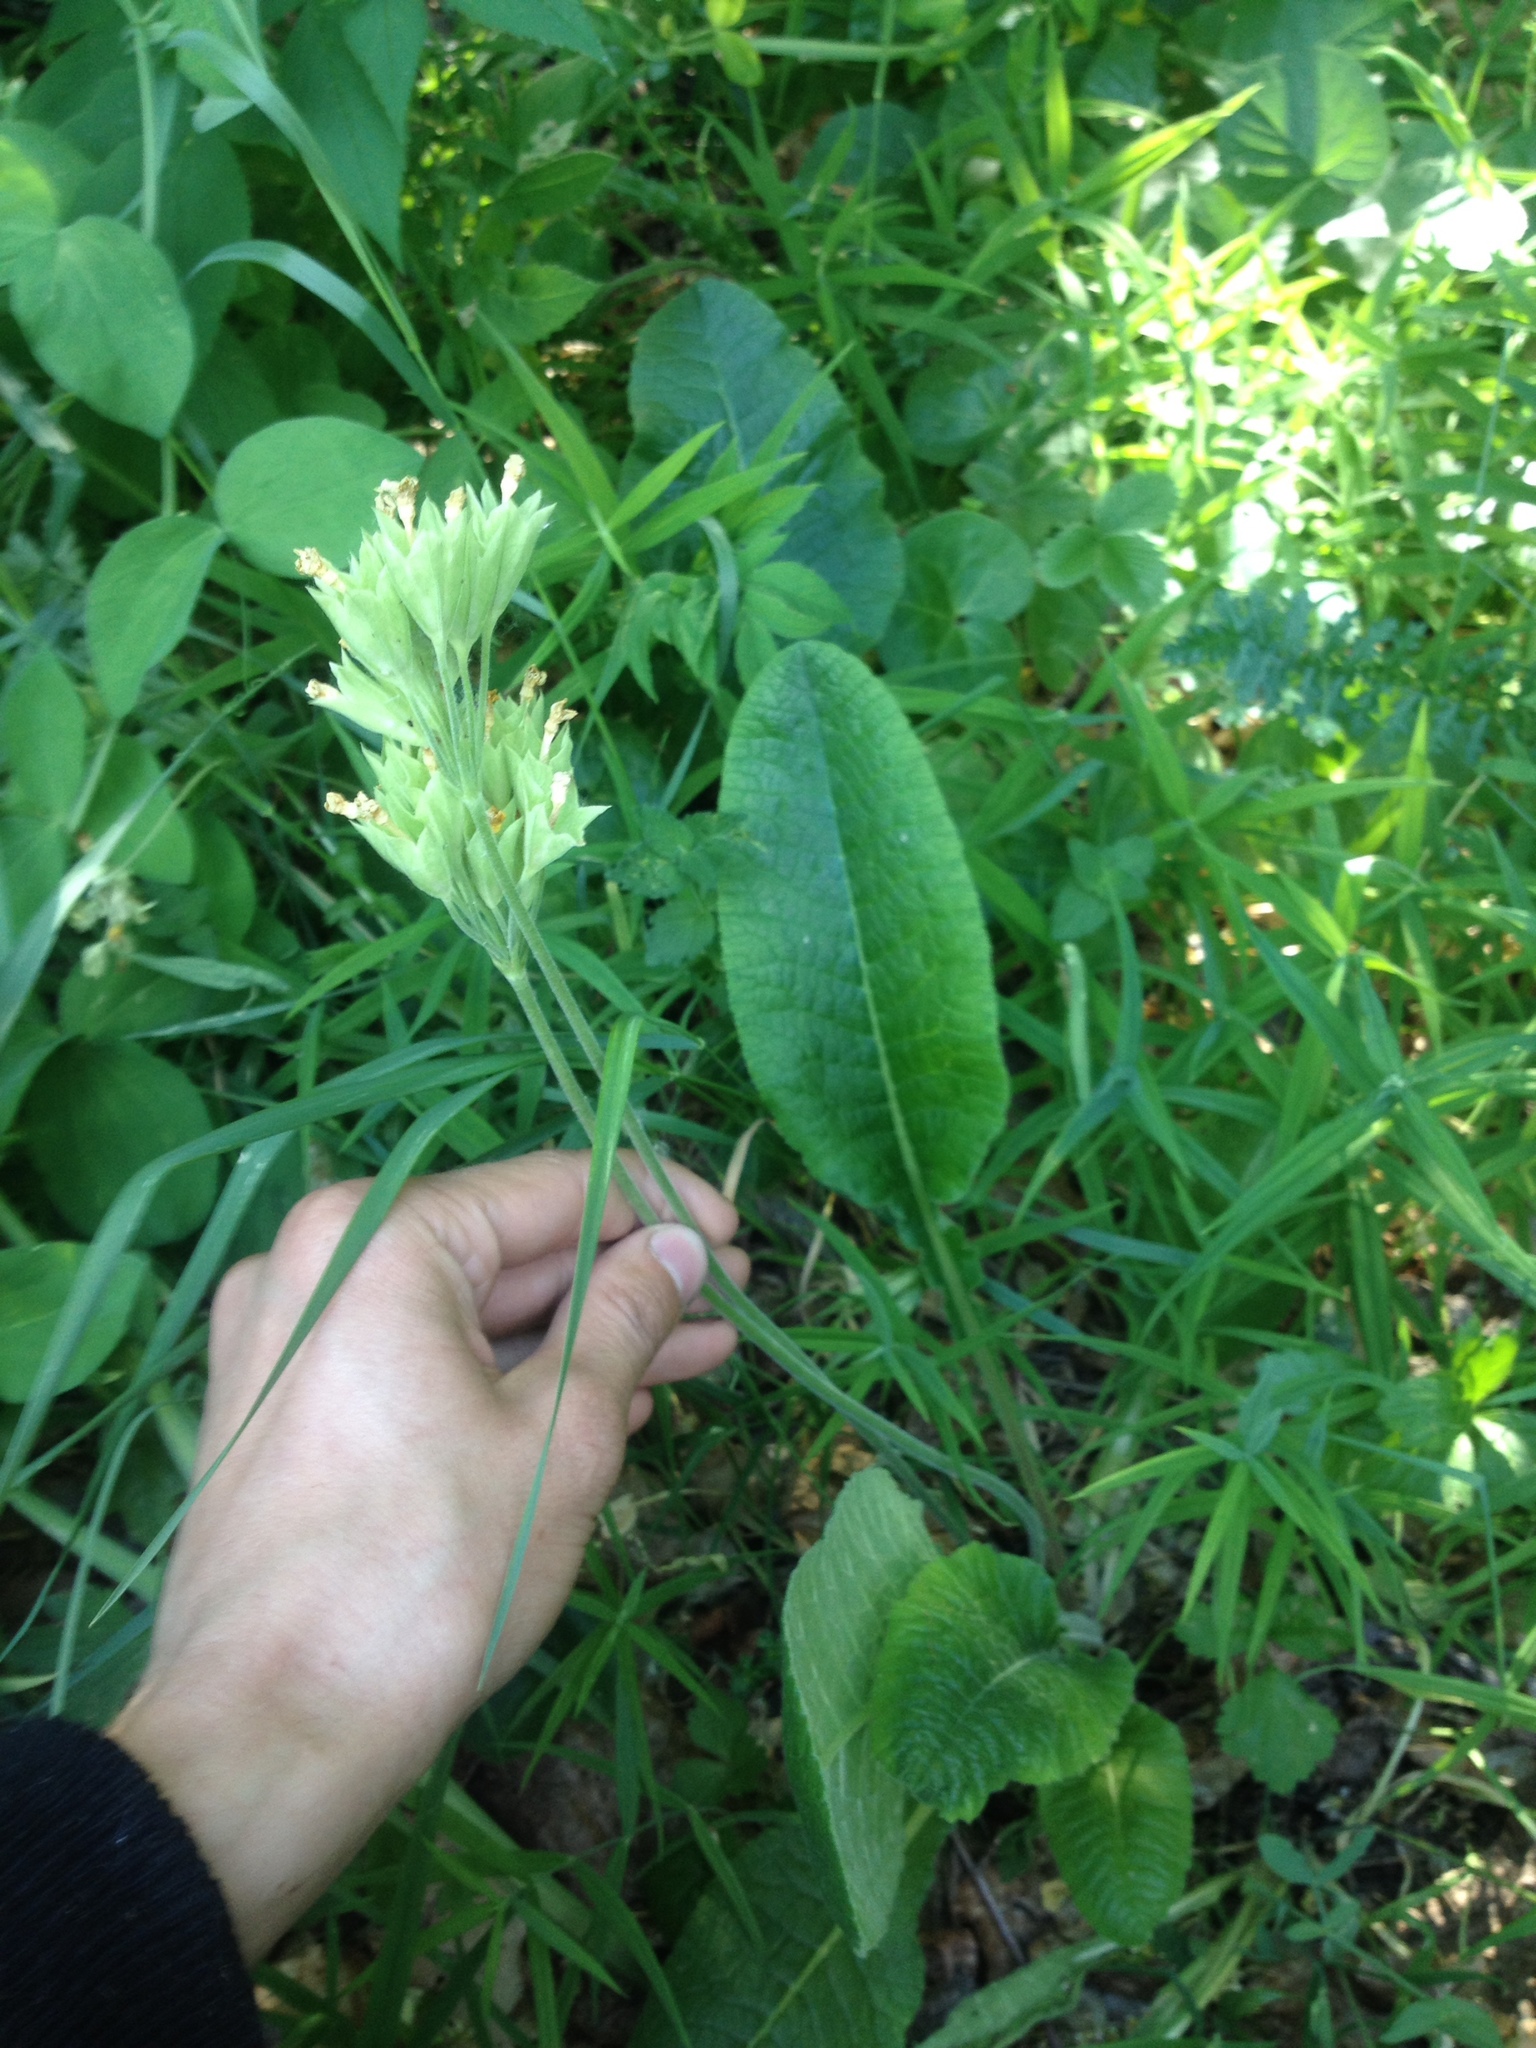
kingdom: Plantae
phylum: Tracheophyta
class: Magnoliopsida
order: Ericales
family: Primulaceae
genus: Primula
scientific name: Primula veris
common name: Cowslip
